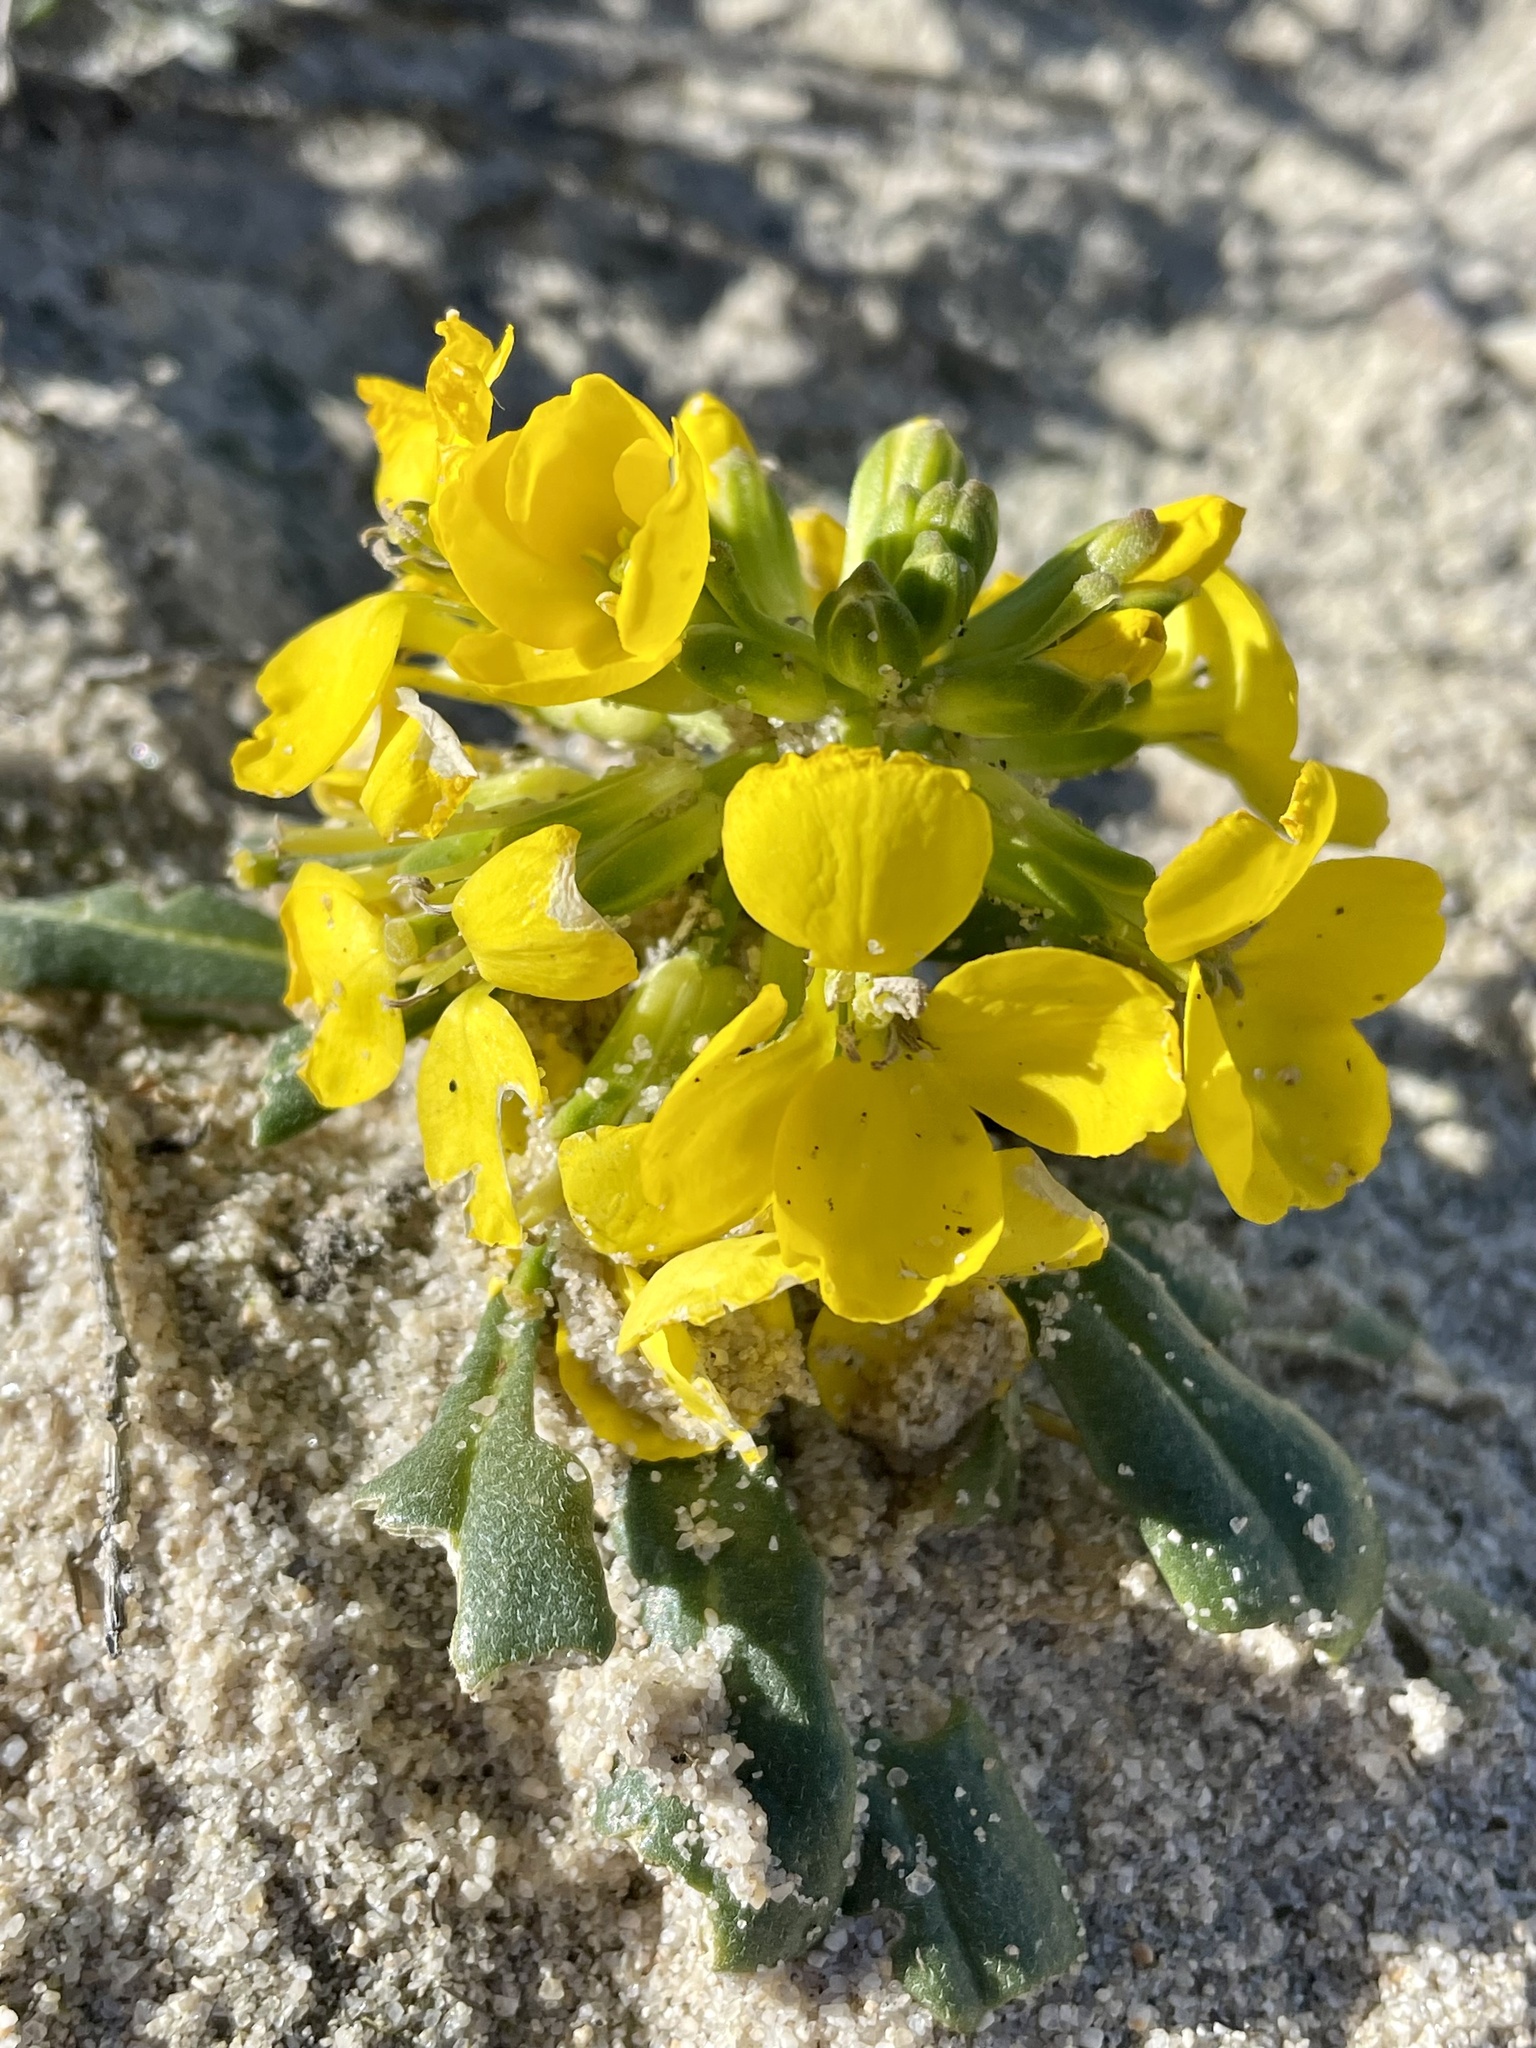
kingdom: Plantae
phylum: Tracheophyta
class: Magnoliopsida
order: Brassicales
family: Brassicaceae
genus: Erysimum
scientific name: Erysimum menziesii
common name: Menzies's wallflower
